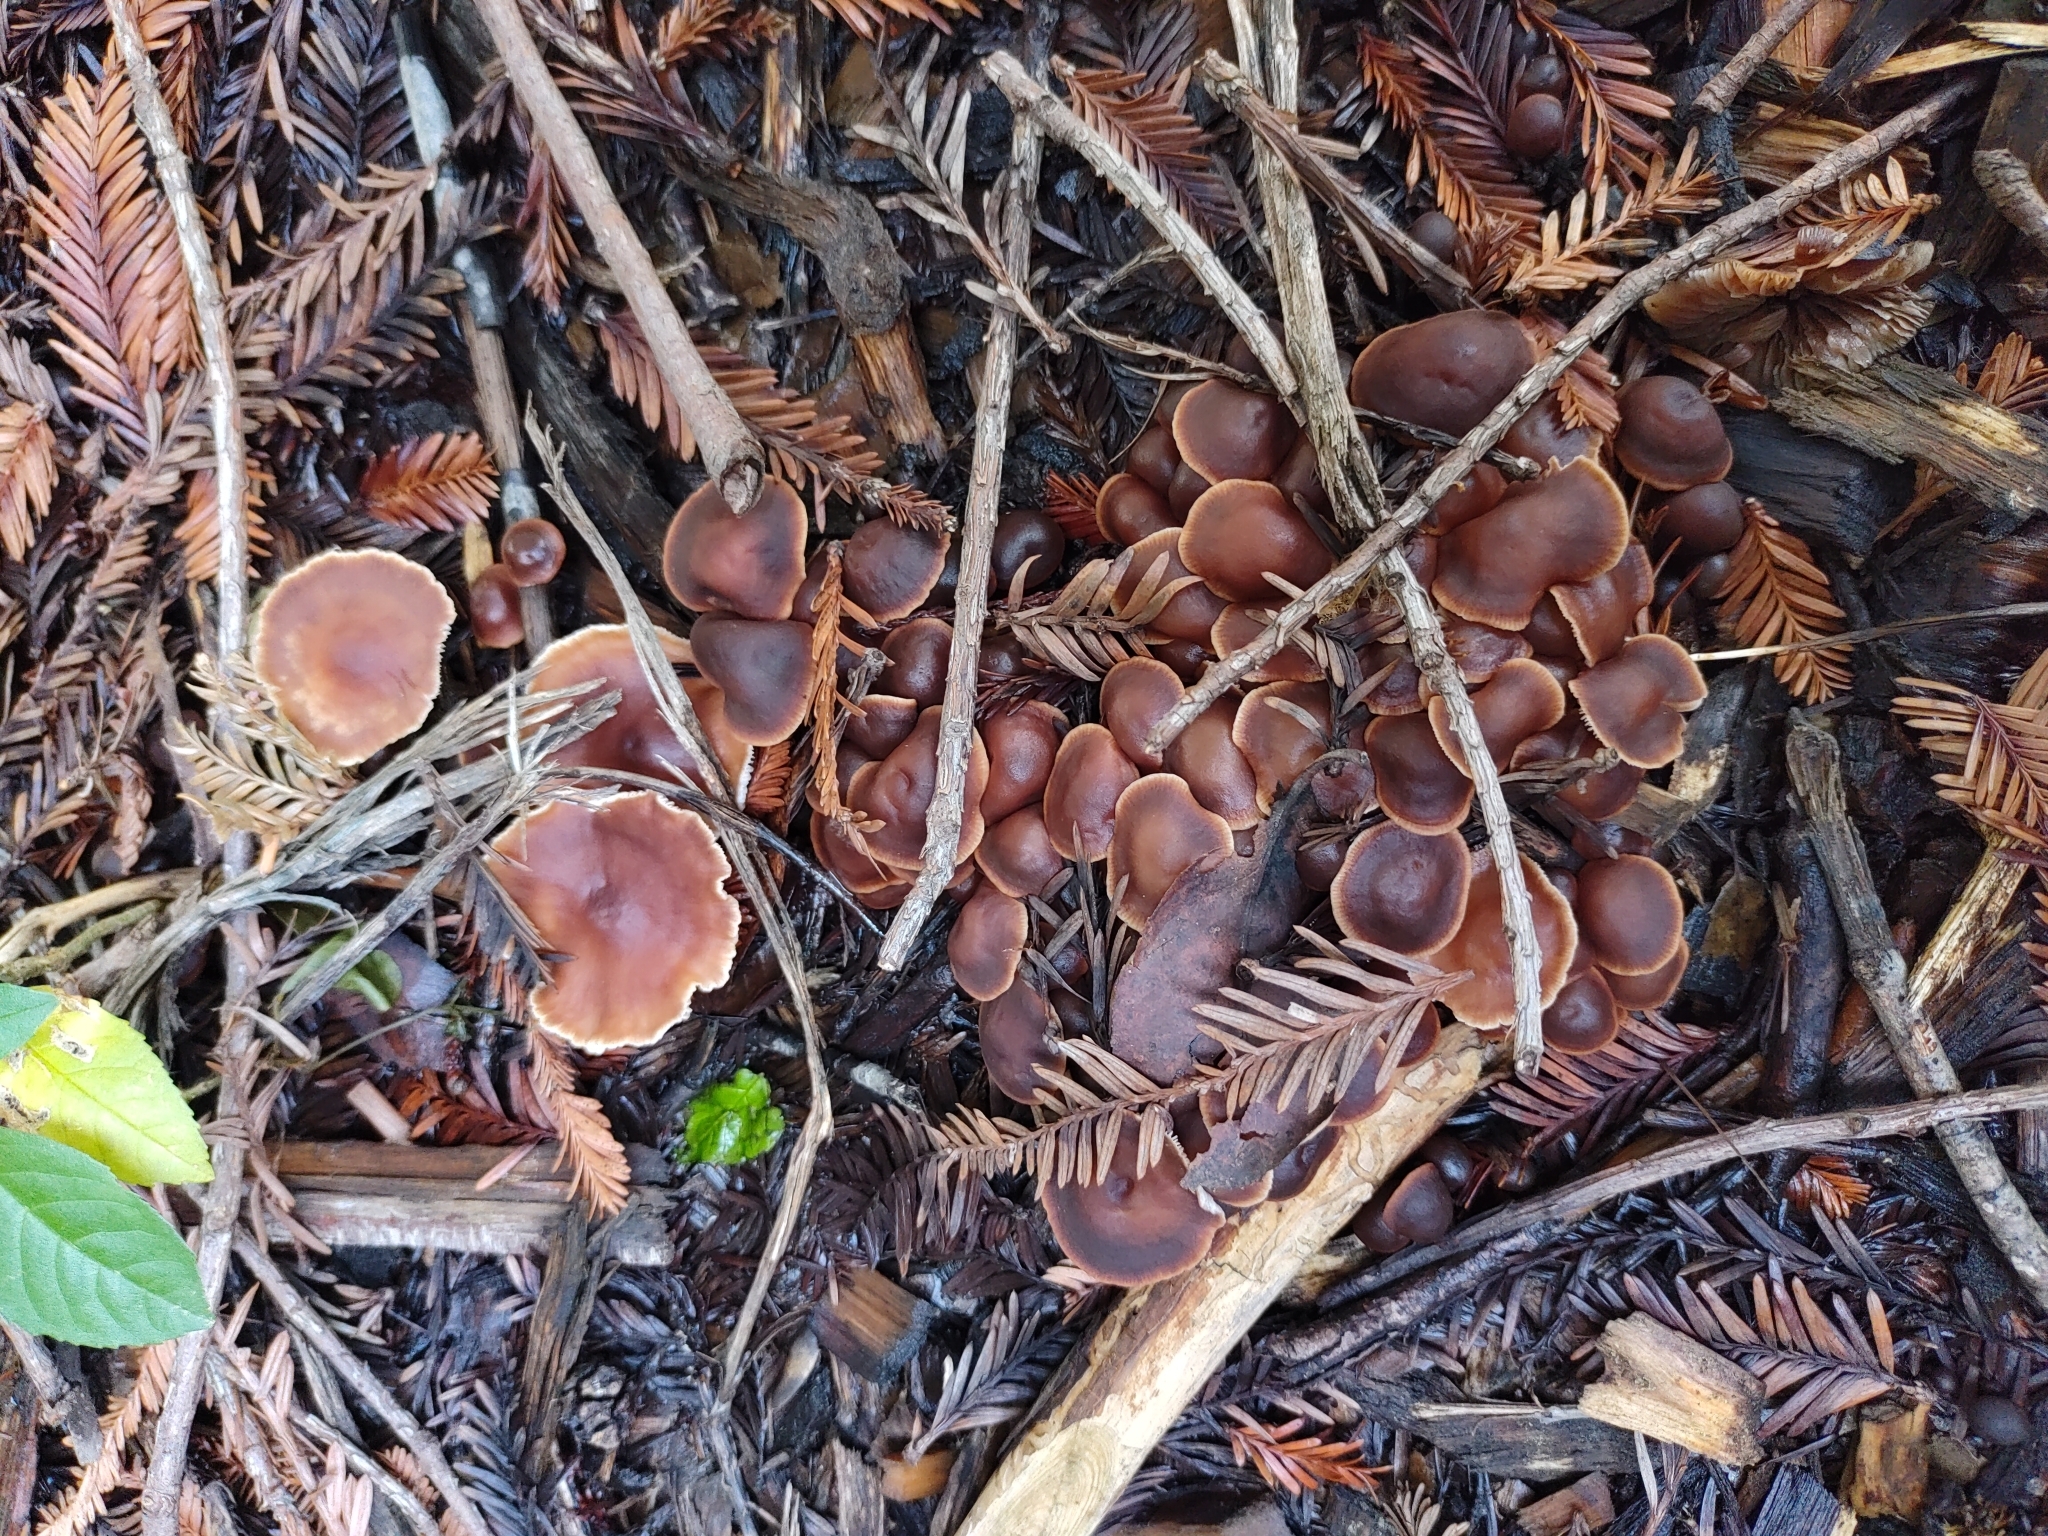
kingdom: Fungi
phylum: Basidiomycota
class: Agaricomycetes
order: Agaricales
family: Omphalotaceae
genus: Gymnopus
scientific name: Gymnopus brassicolens
